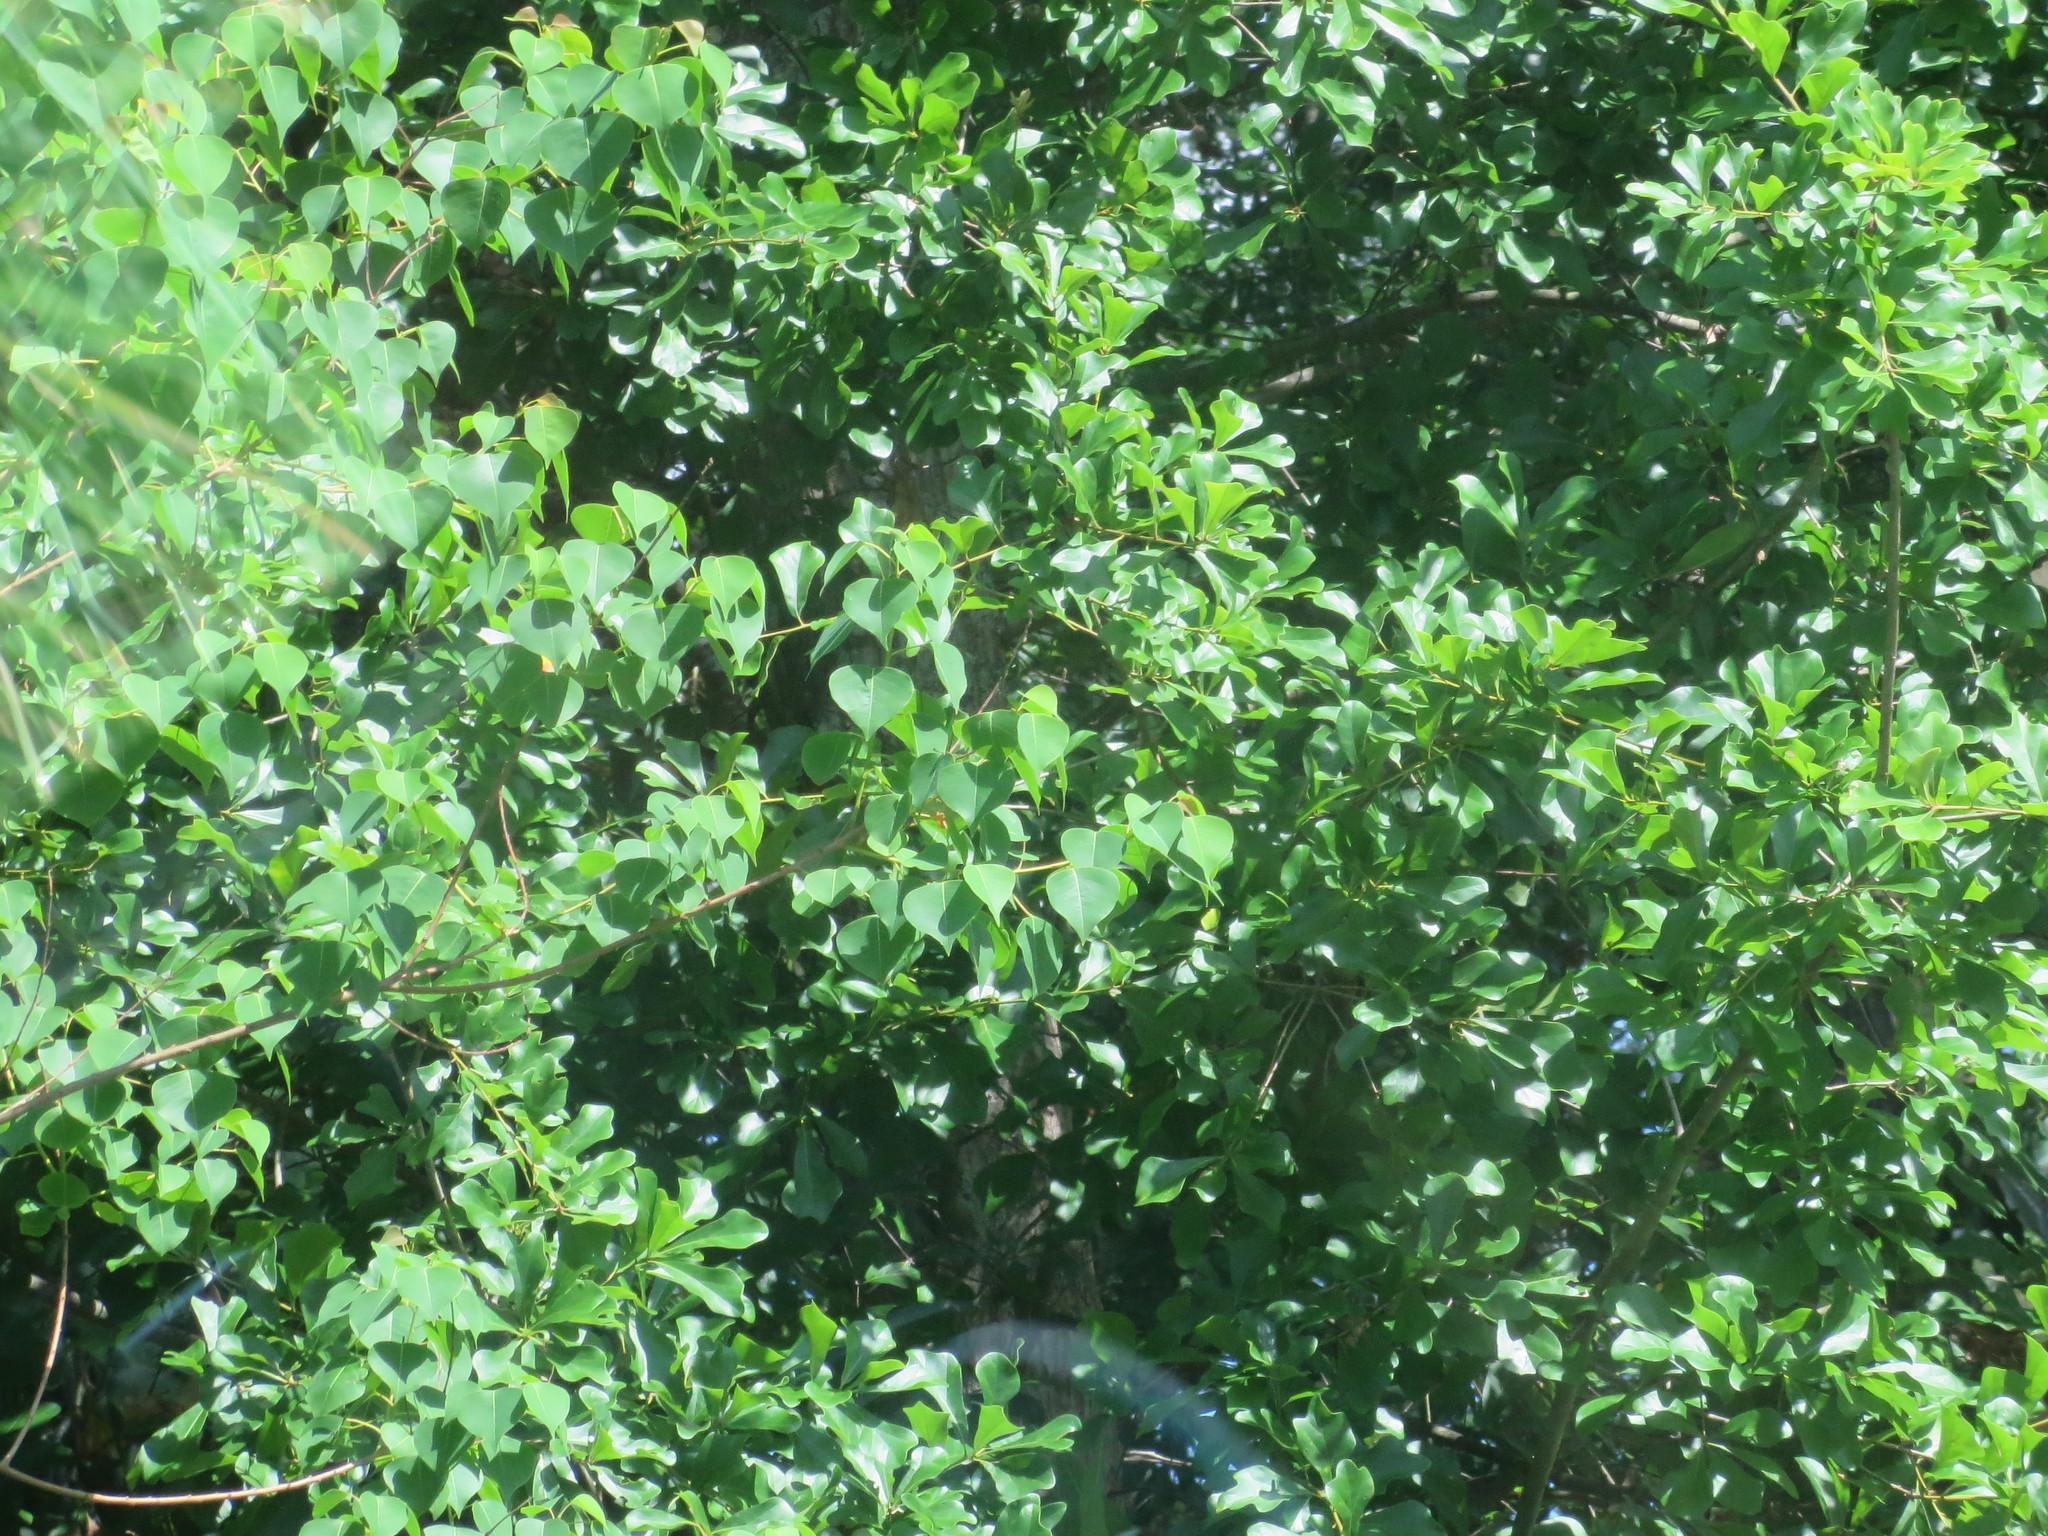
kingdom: Plantae
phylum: Tracheophyta
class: Magnoliopsida
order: Malpighiales
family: Euphorbiaceae
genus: Triadica
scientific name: Triadica sebifera
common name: Chinese tallow
